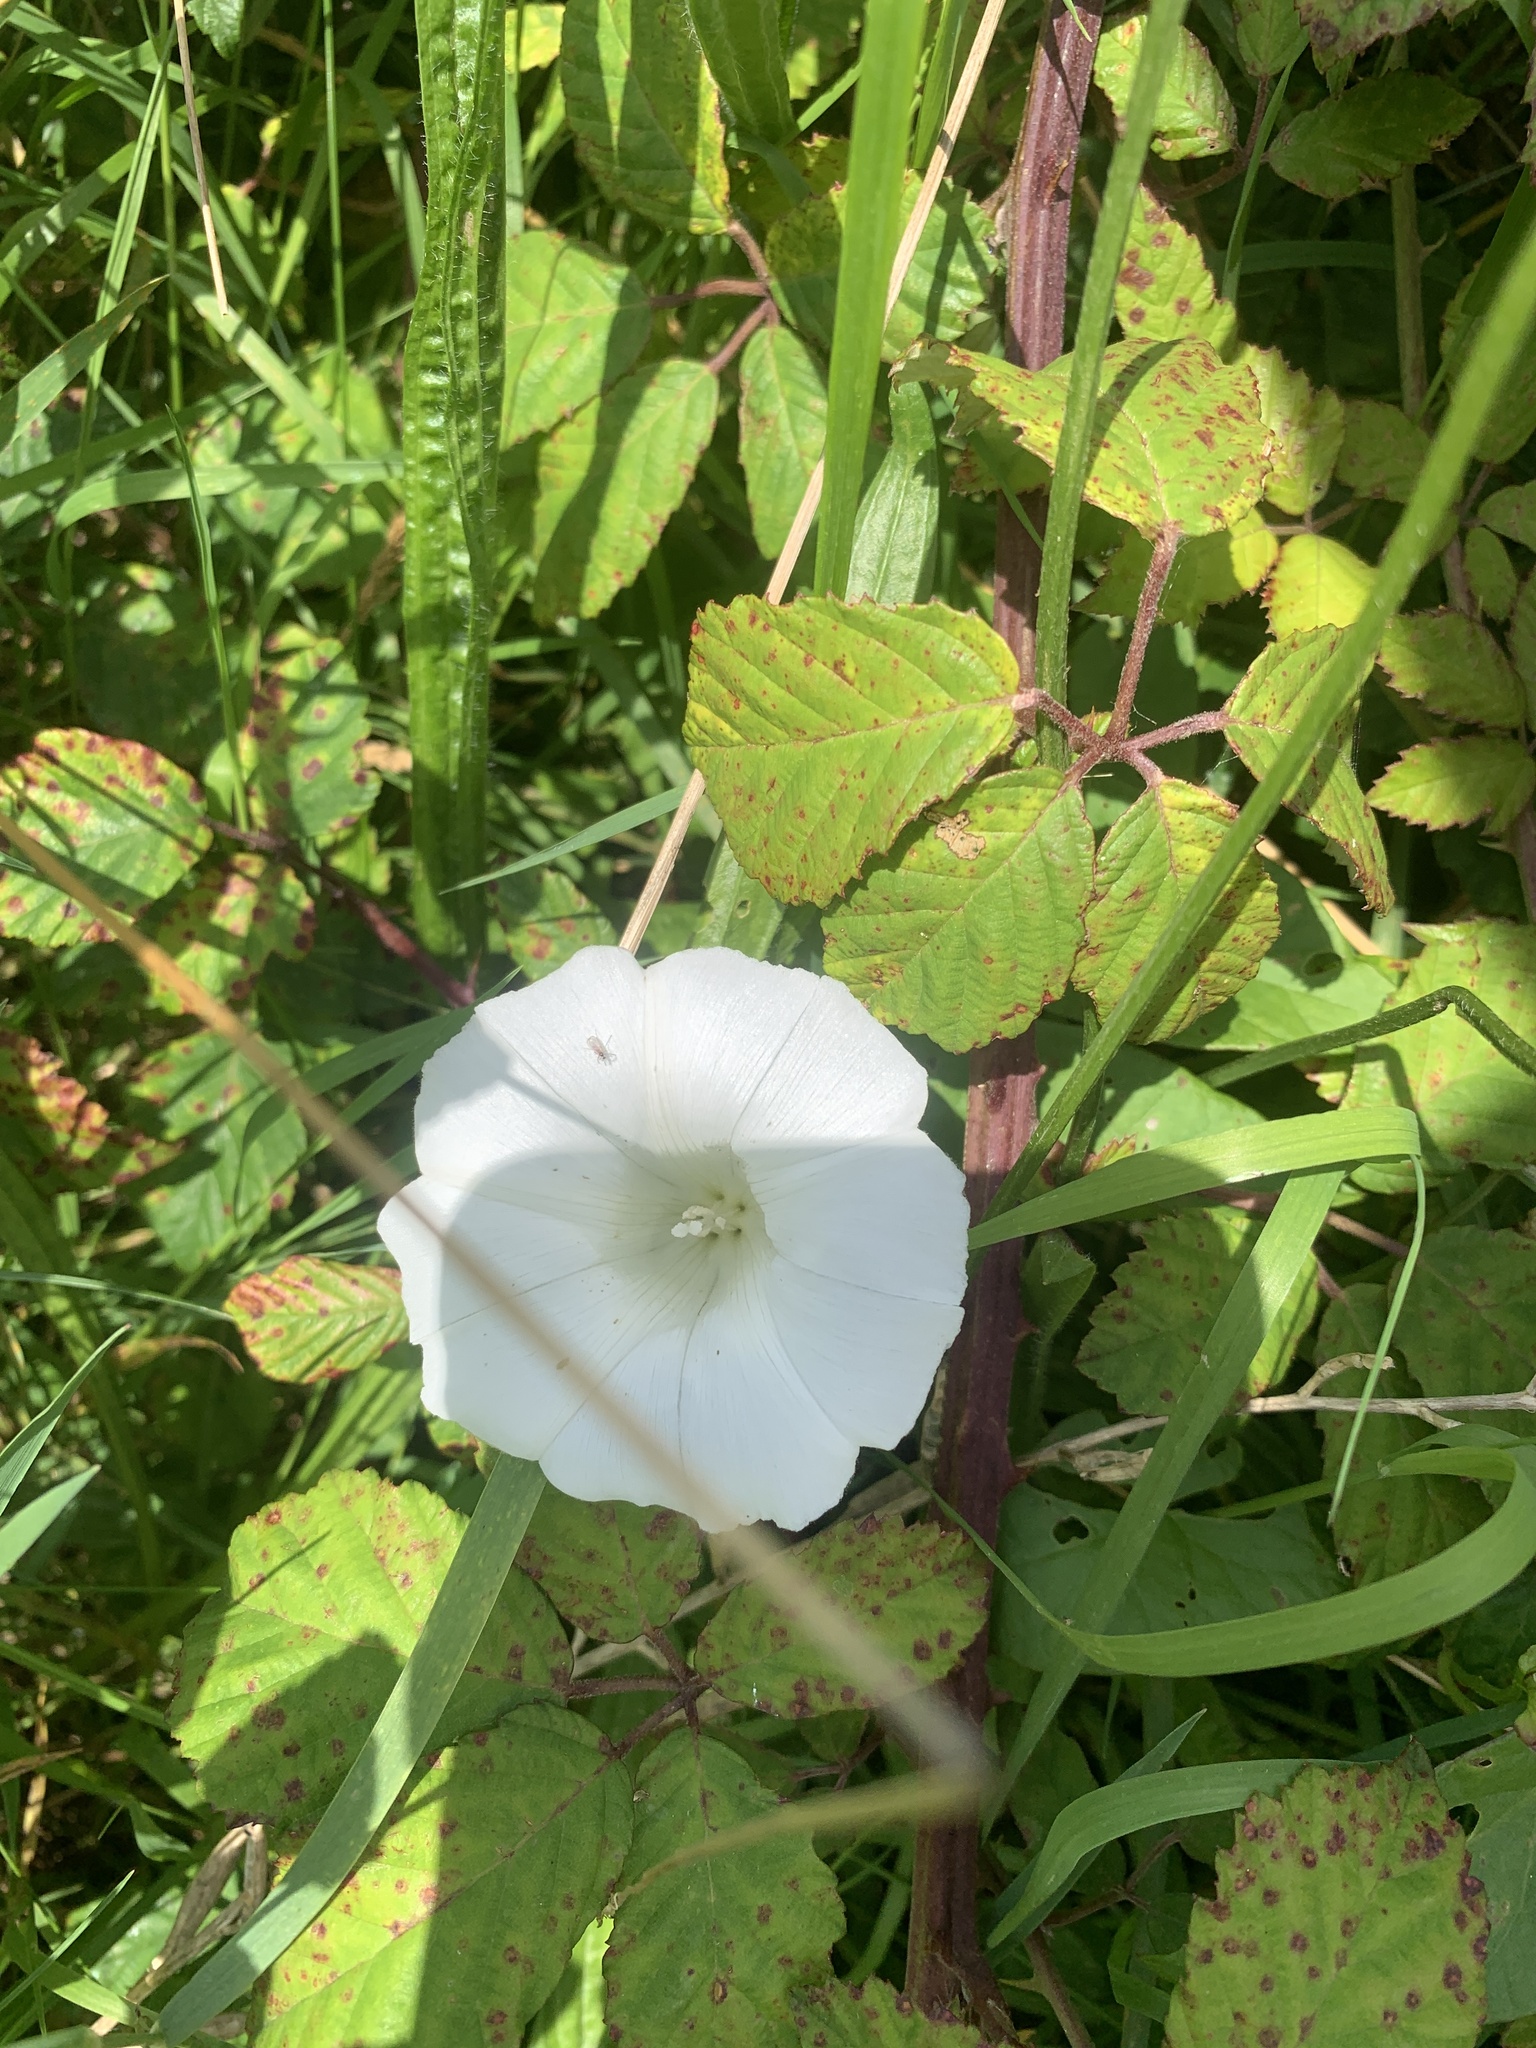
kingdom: Plantae
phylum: Tracheophyta
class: Magnoliopsida
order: Solanales
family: Convolvulaceae
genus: Calystegia
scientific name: Calystegia sepium
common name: Hedge bindweed
